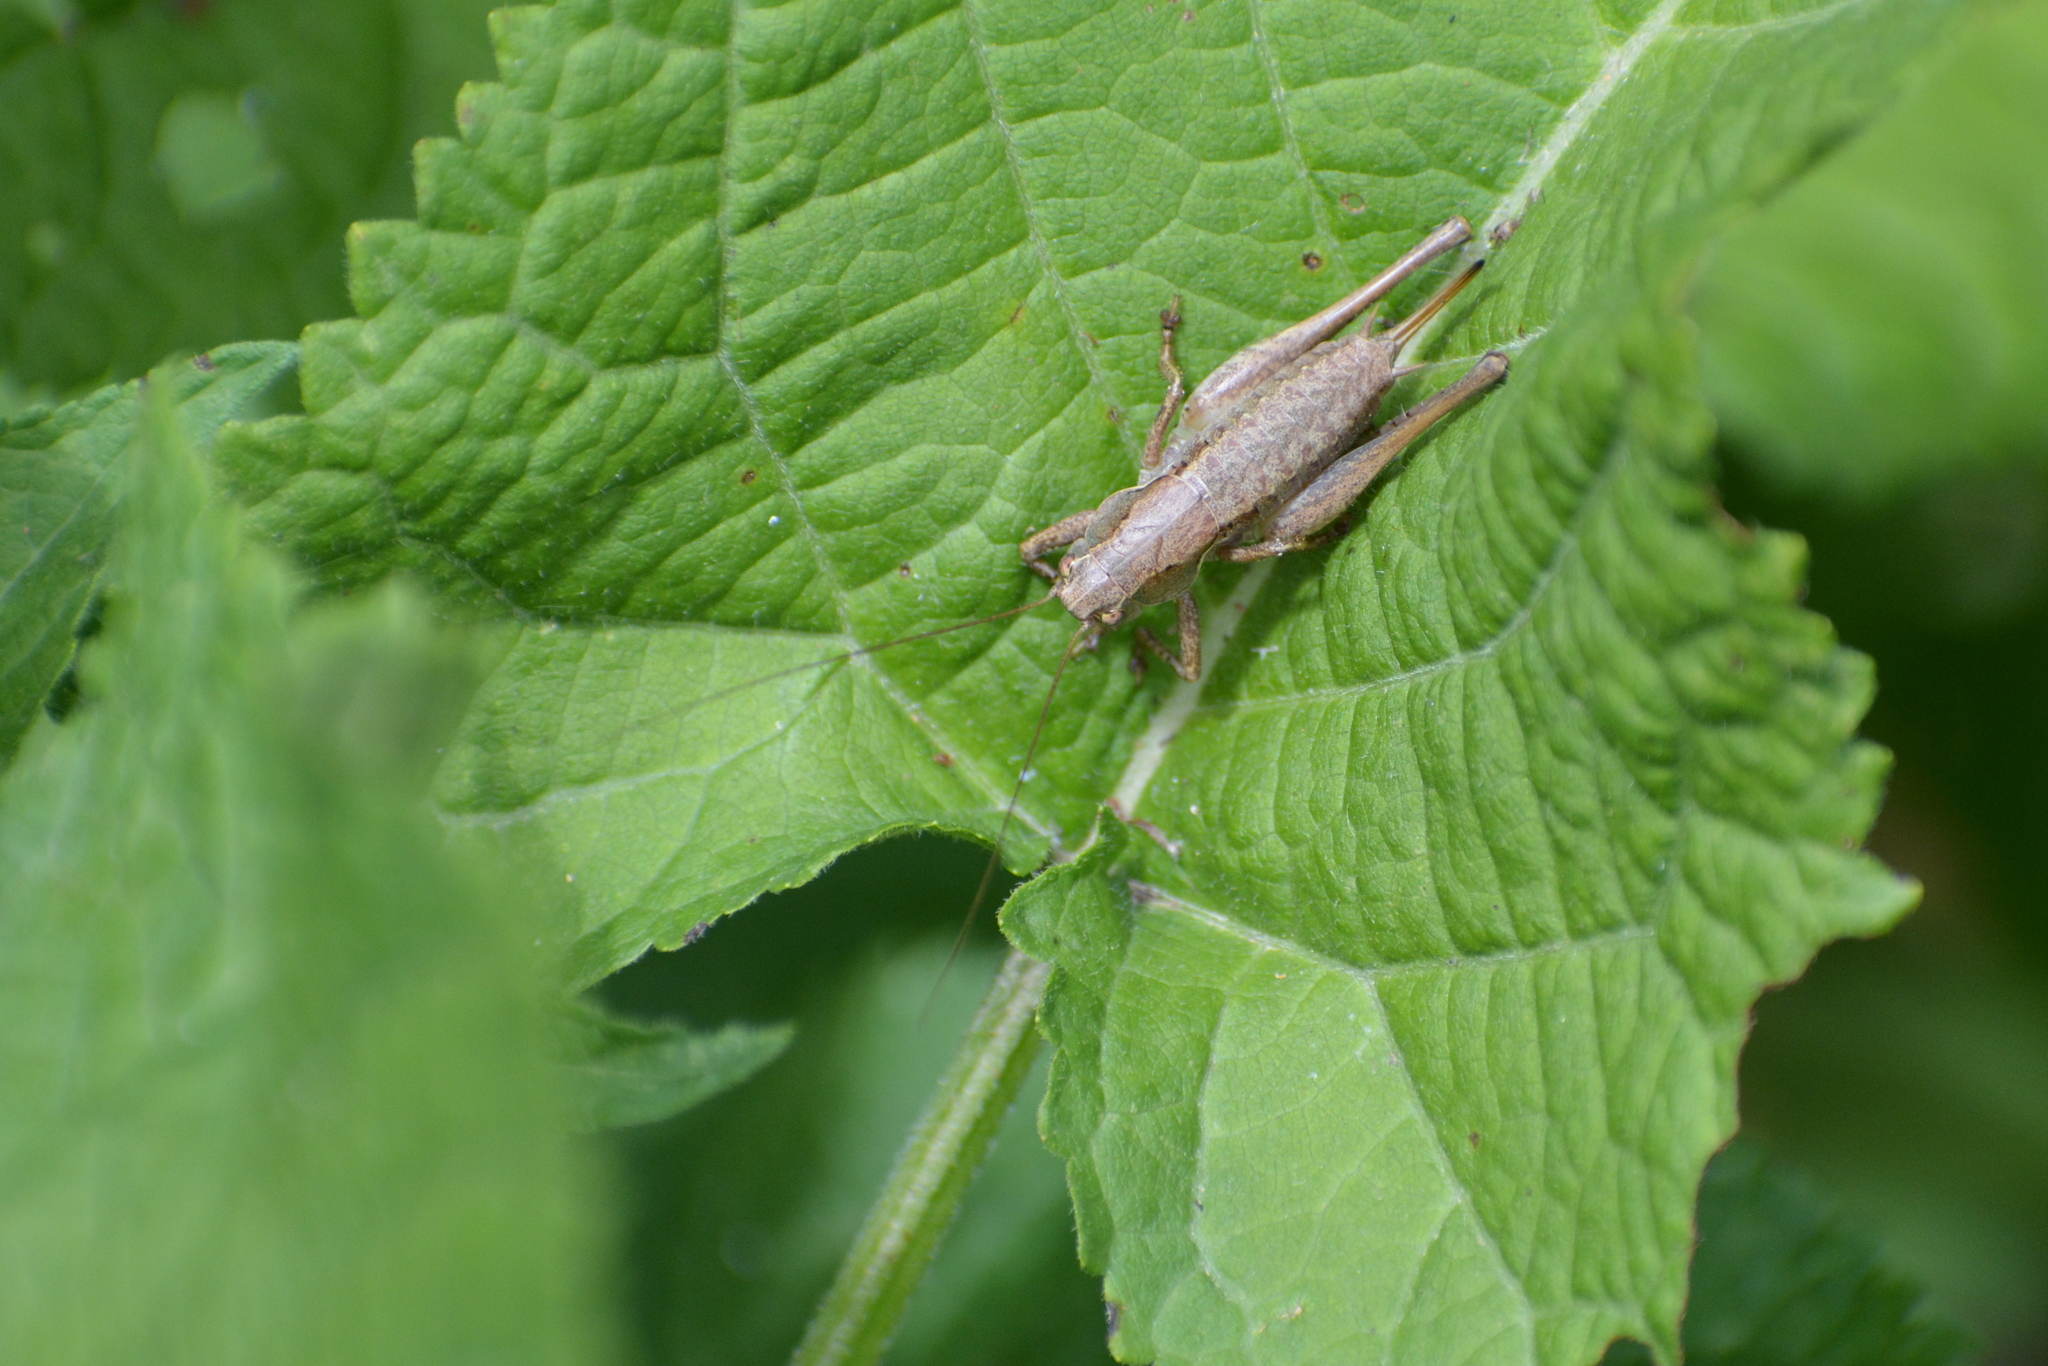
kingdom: Animalia
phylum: Arthropoda
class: Insecta
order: Orthoptera
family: Tettigoniidae
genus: Pholidoptera
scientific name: Pholidoptera griseoaptera
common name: Dark bush-cricket
